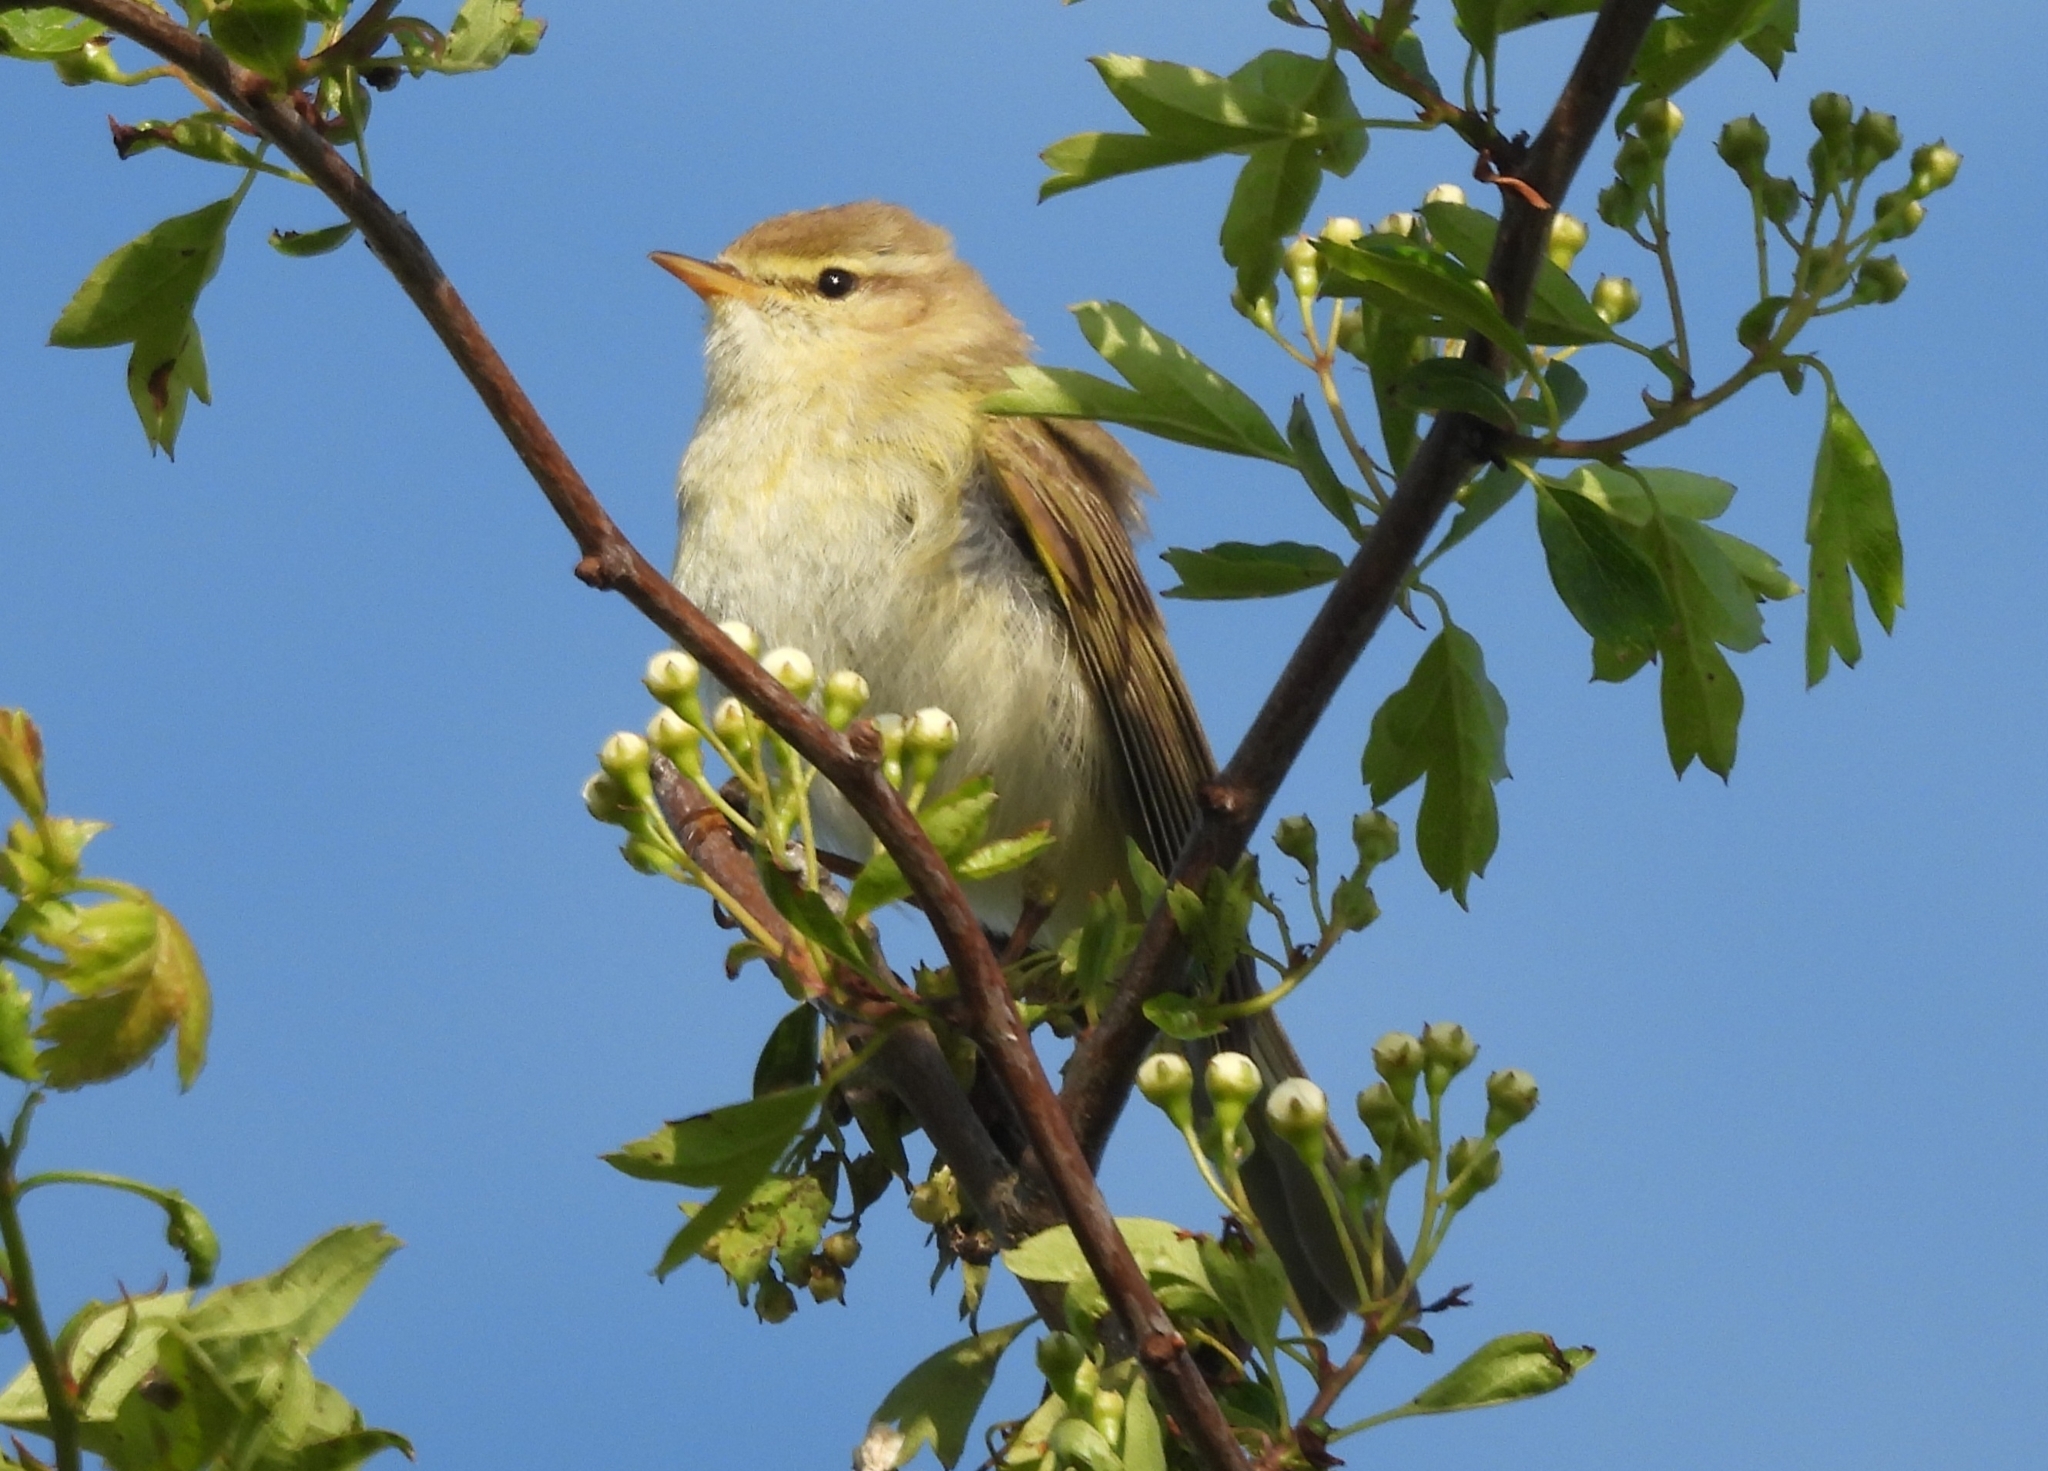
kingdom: Animalia
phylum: Chordata
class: Aves
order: Passeriformes
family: Phylloscopidae
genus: Phylloscopus
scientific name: Phylloscopus trochilus
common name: Willow warbler
